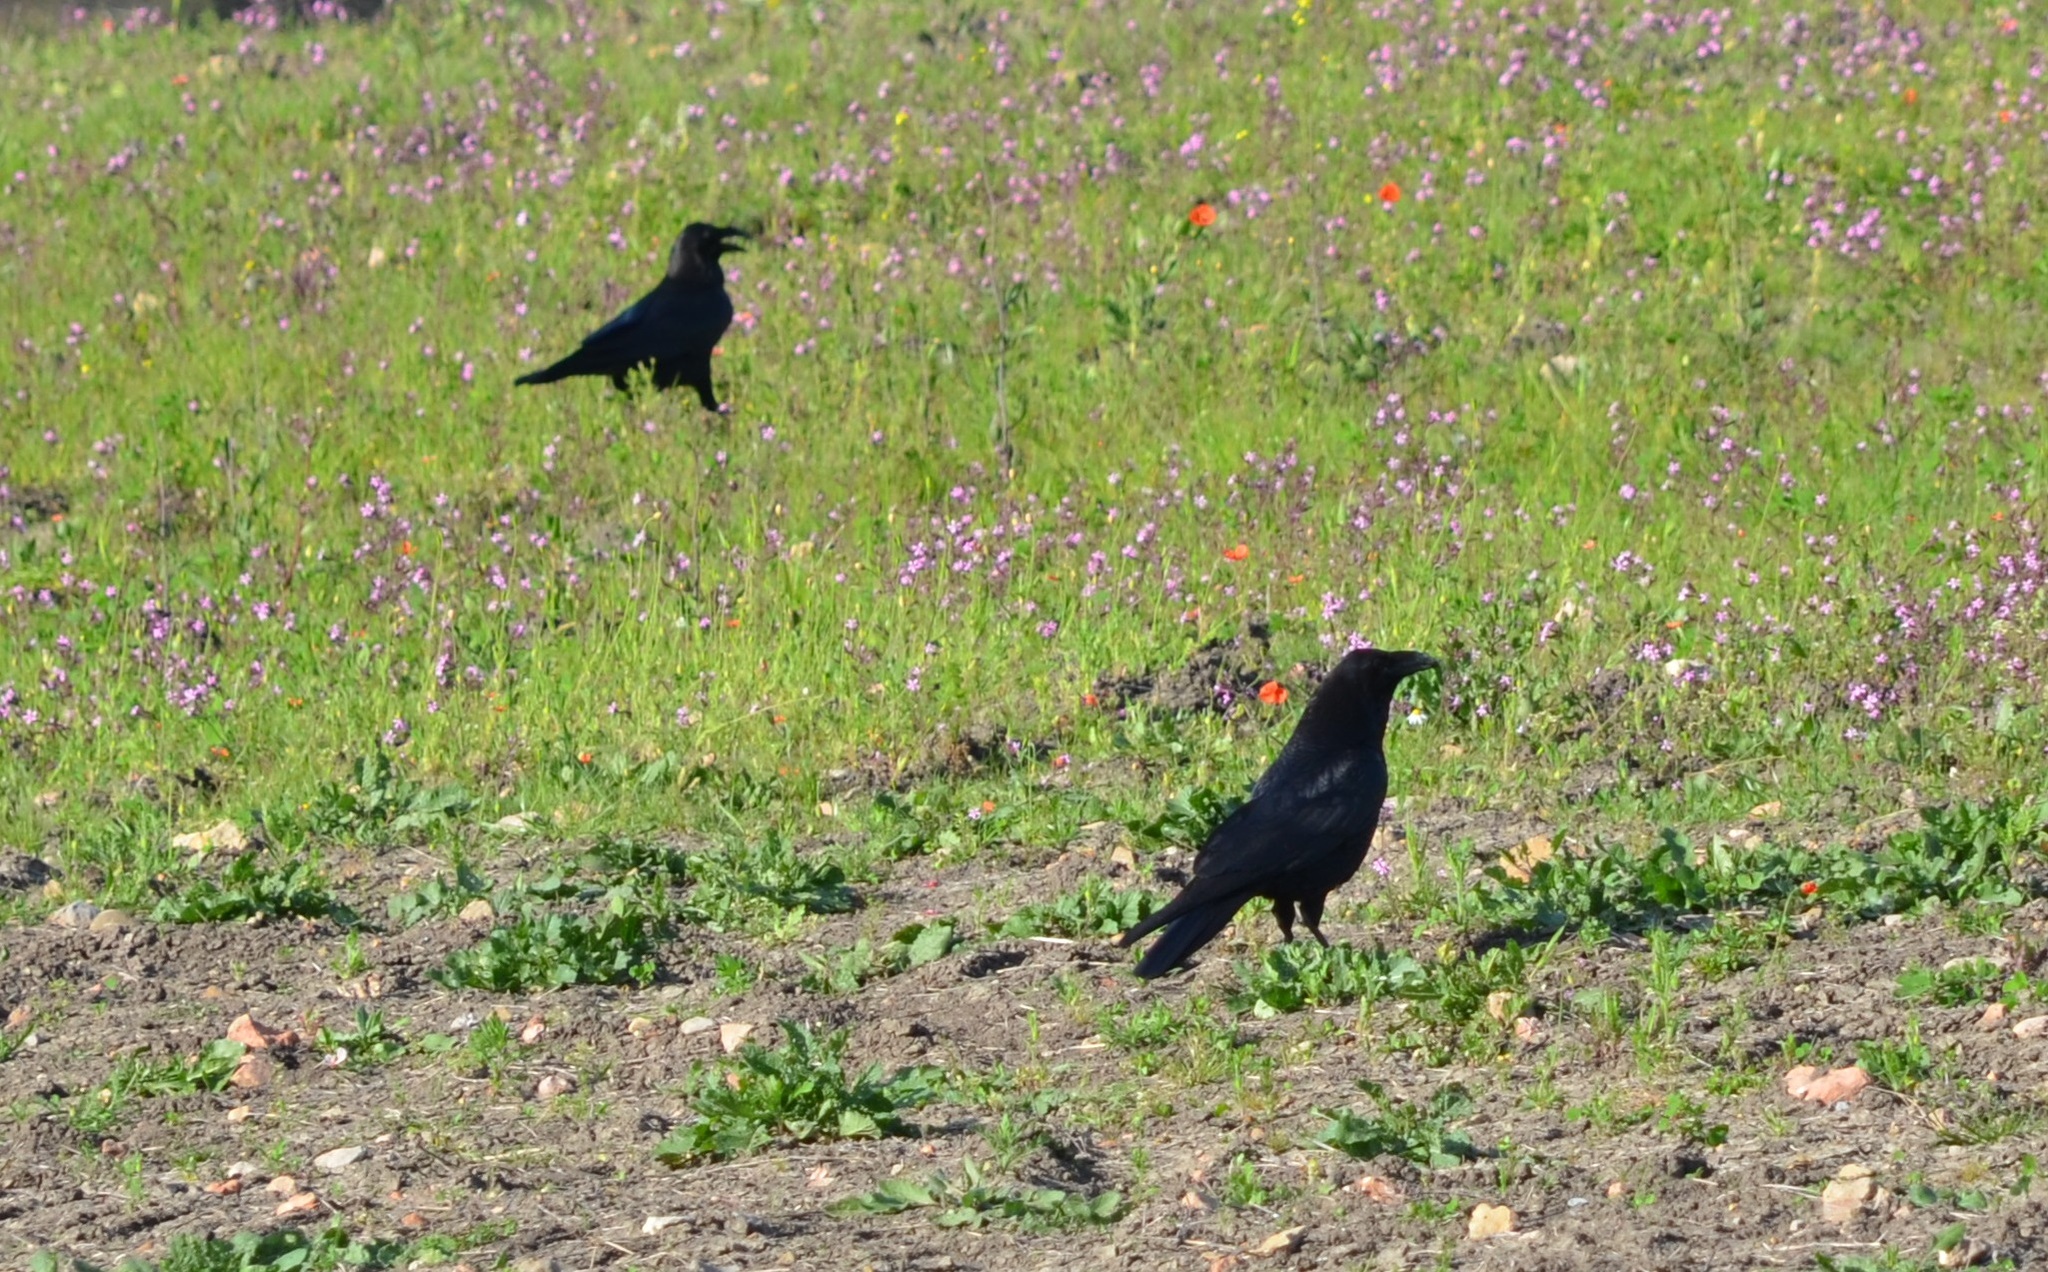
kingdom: Animalia
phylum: Chordata
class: Aves
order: Passeriformes
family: Corvidae
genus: Corvus
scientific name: Corvus corax
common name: Common raven
